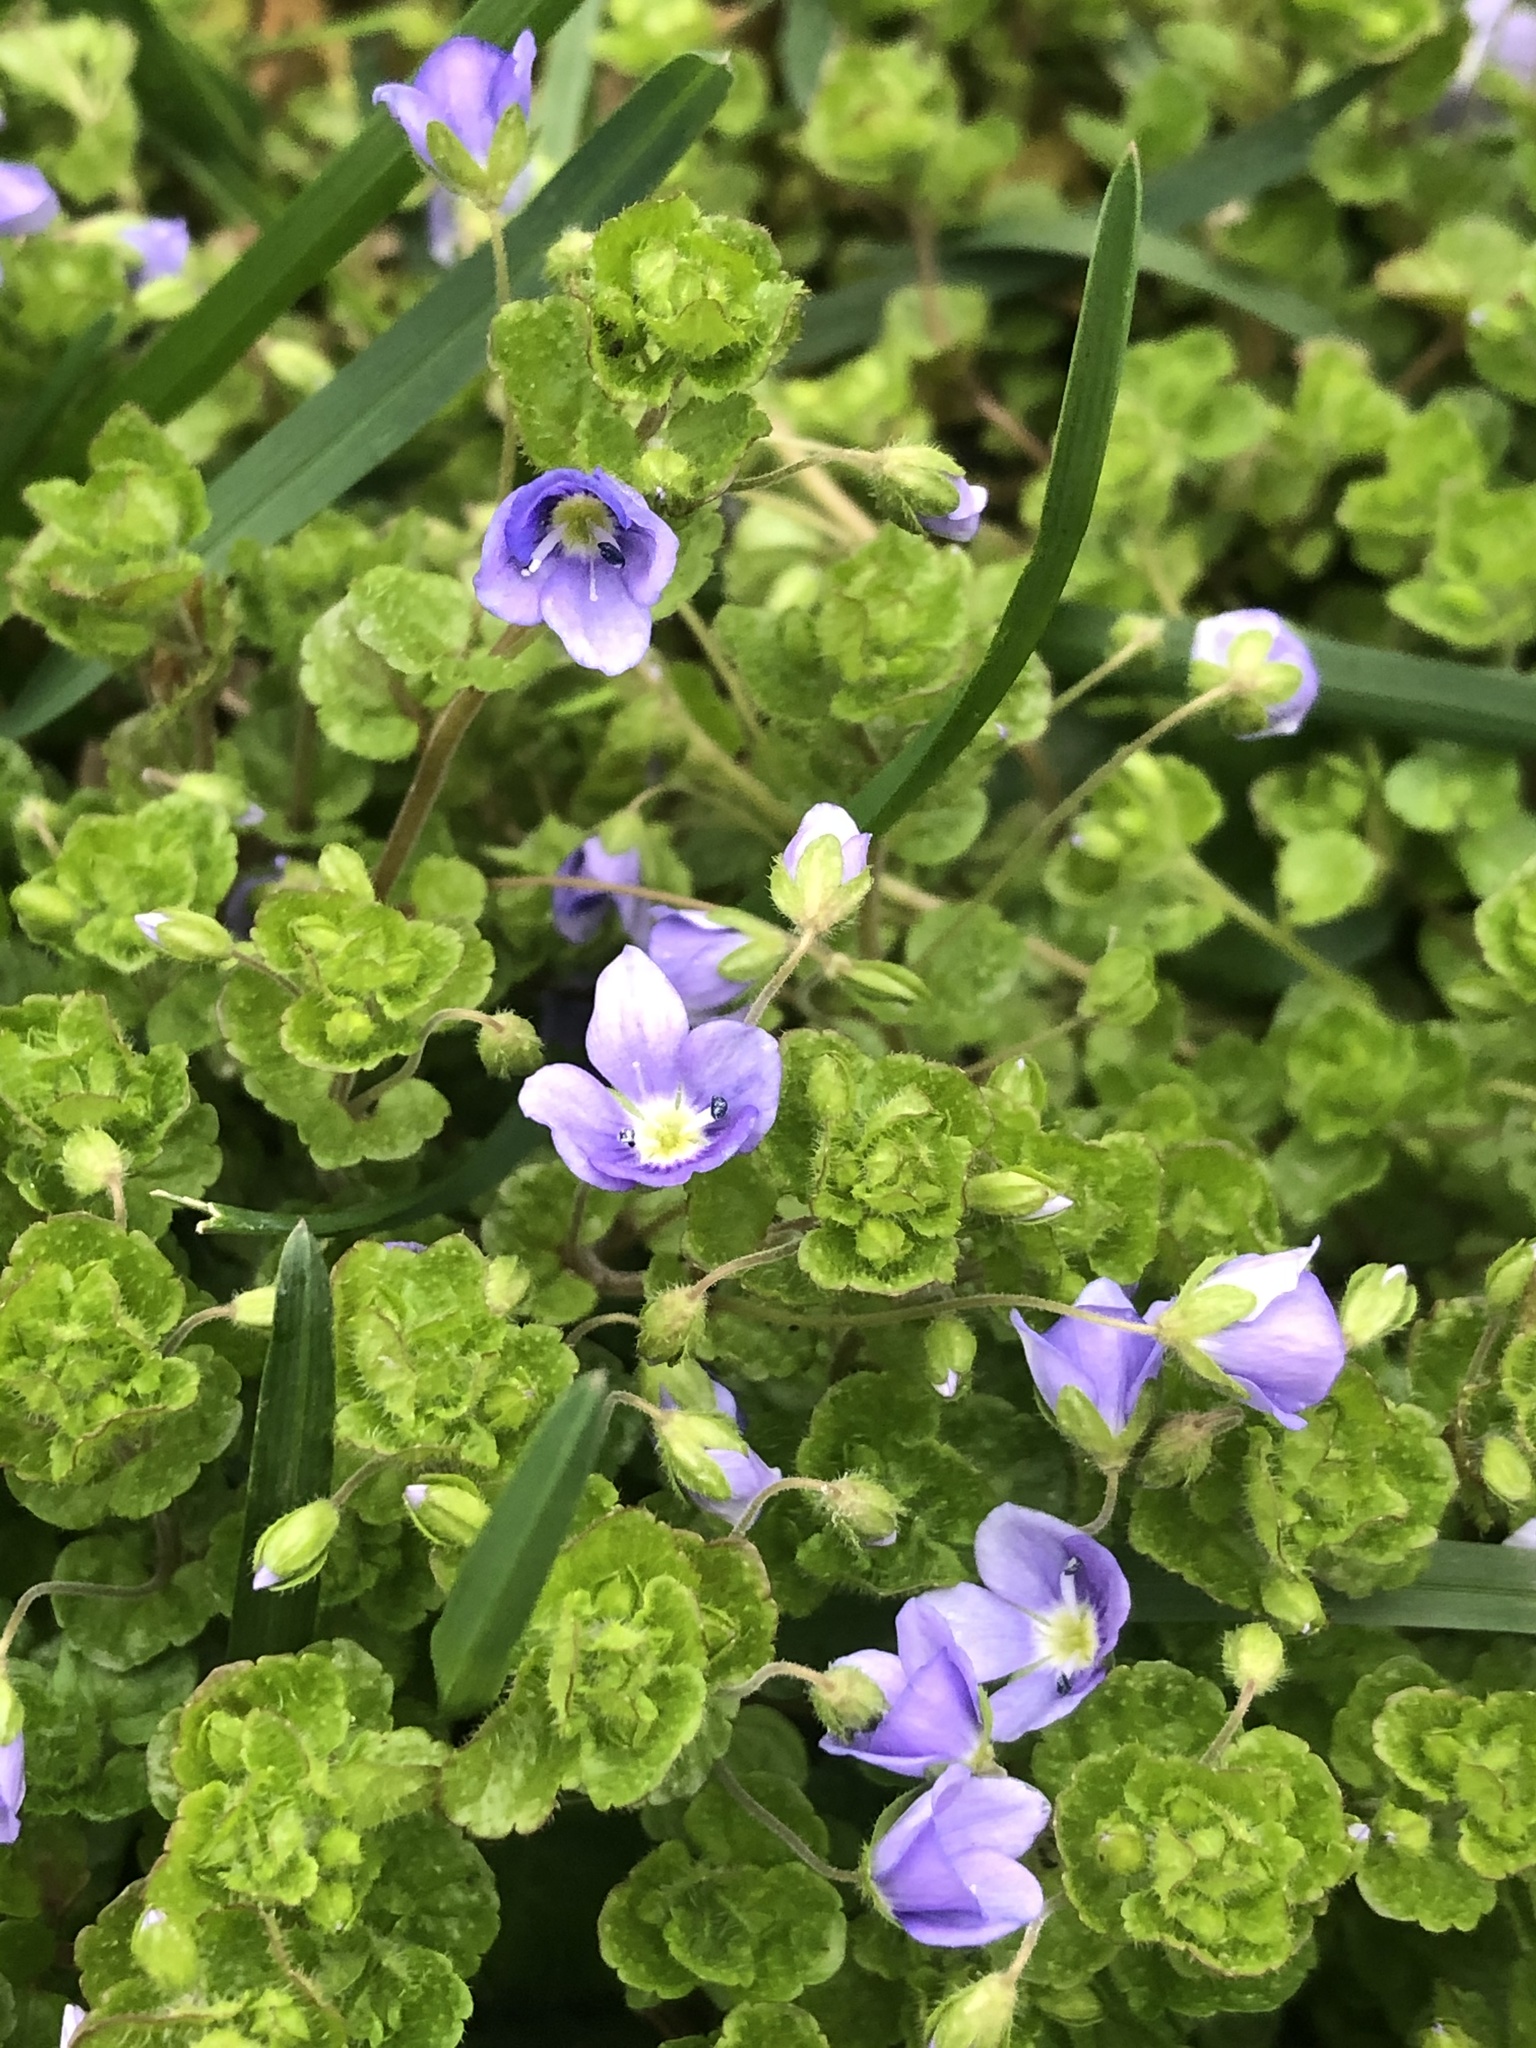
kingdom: Plantae
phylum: Tracheophyta
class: Magnoliopsida
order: Lamiales
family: Plantaginaceae
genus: Veronica
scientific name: Veronica filiformis
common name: Slender speedwell
